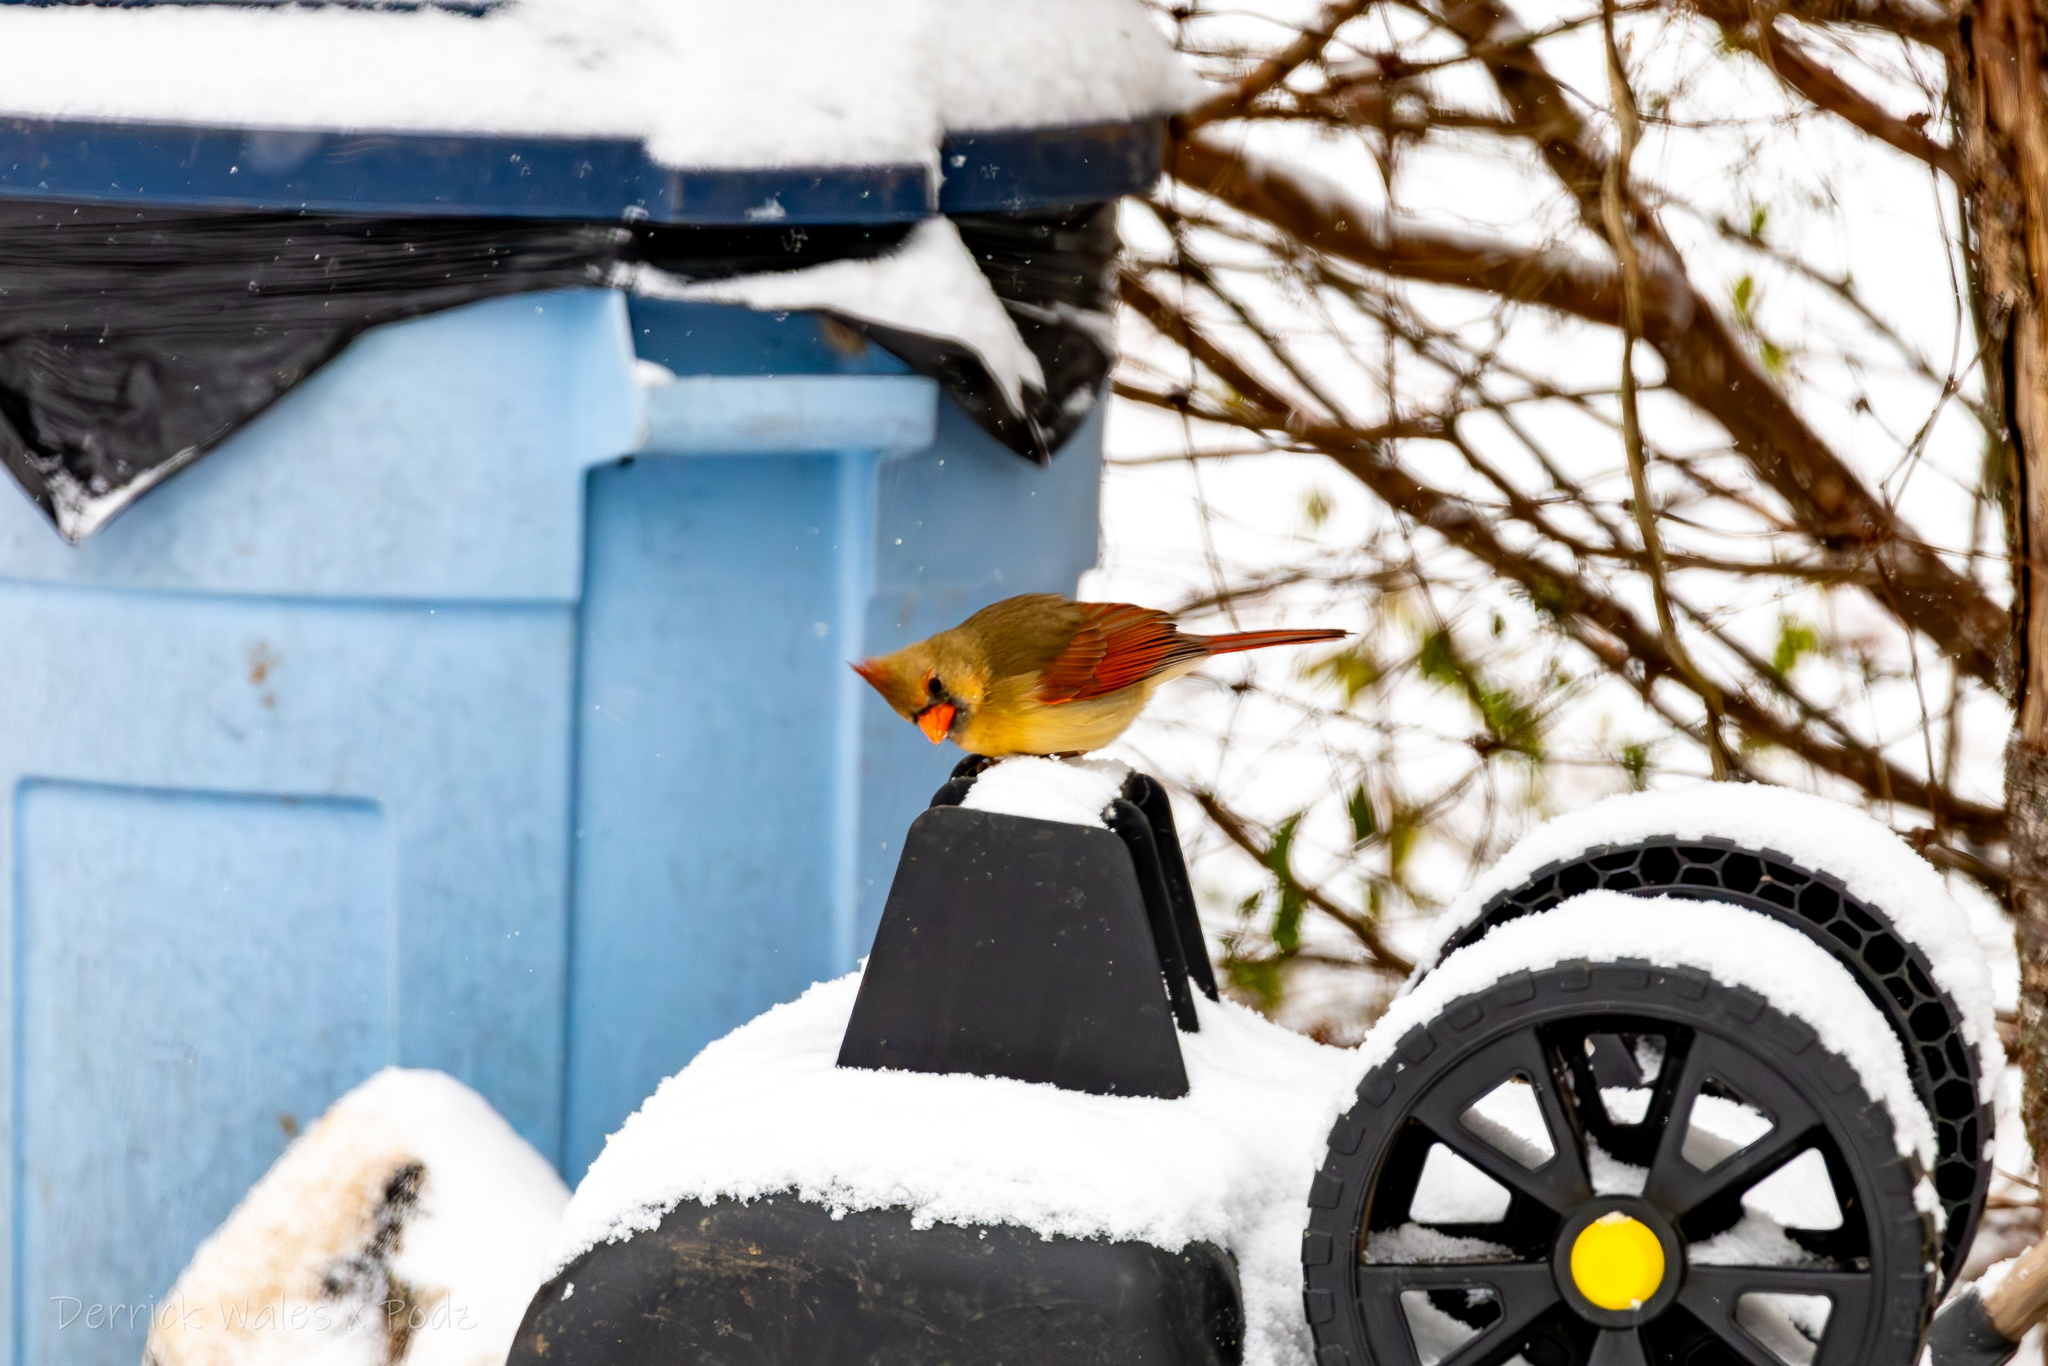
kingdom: Animalia
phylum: Chordata
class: Aves
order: Passeriformes
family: Cardinalidae
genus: Cardinalis
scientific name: Cardinalis cardinalis
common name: Northern cardinal
